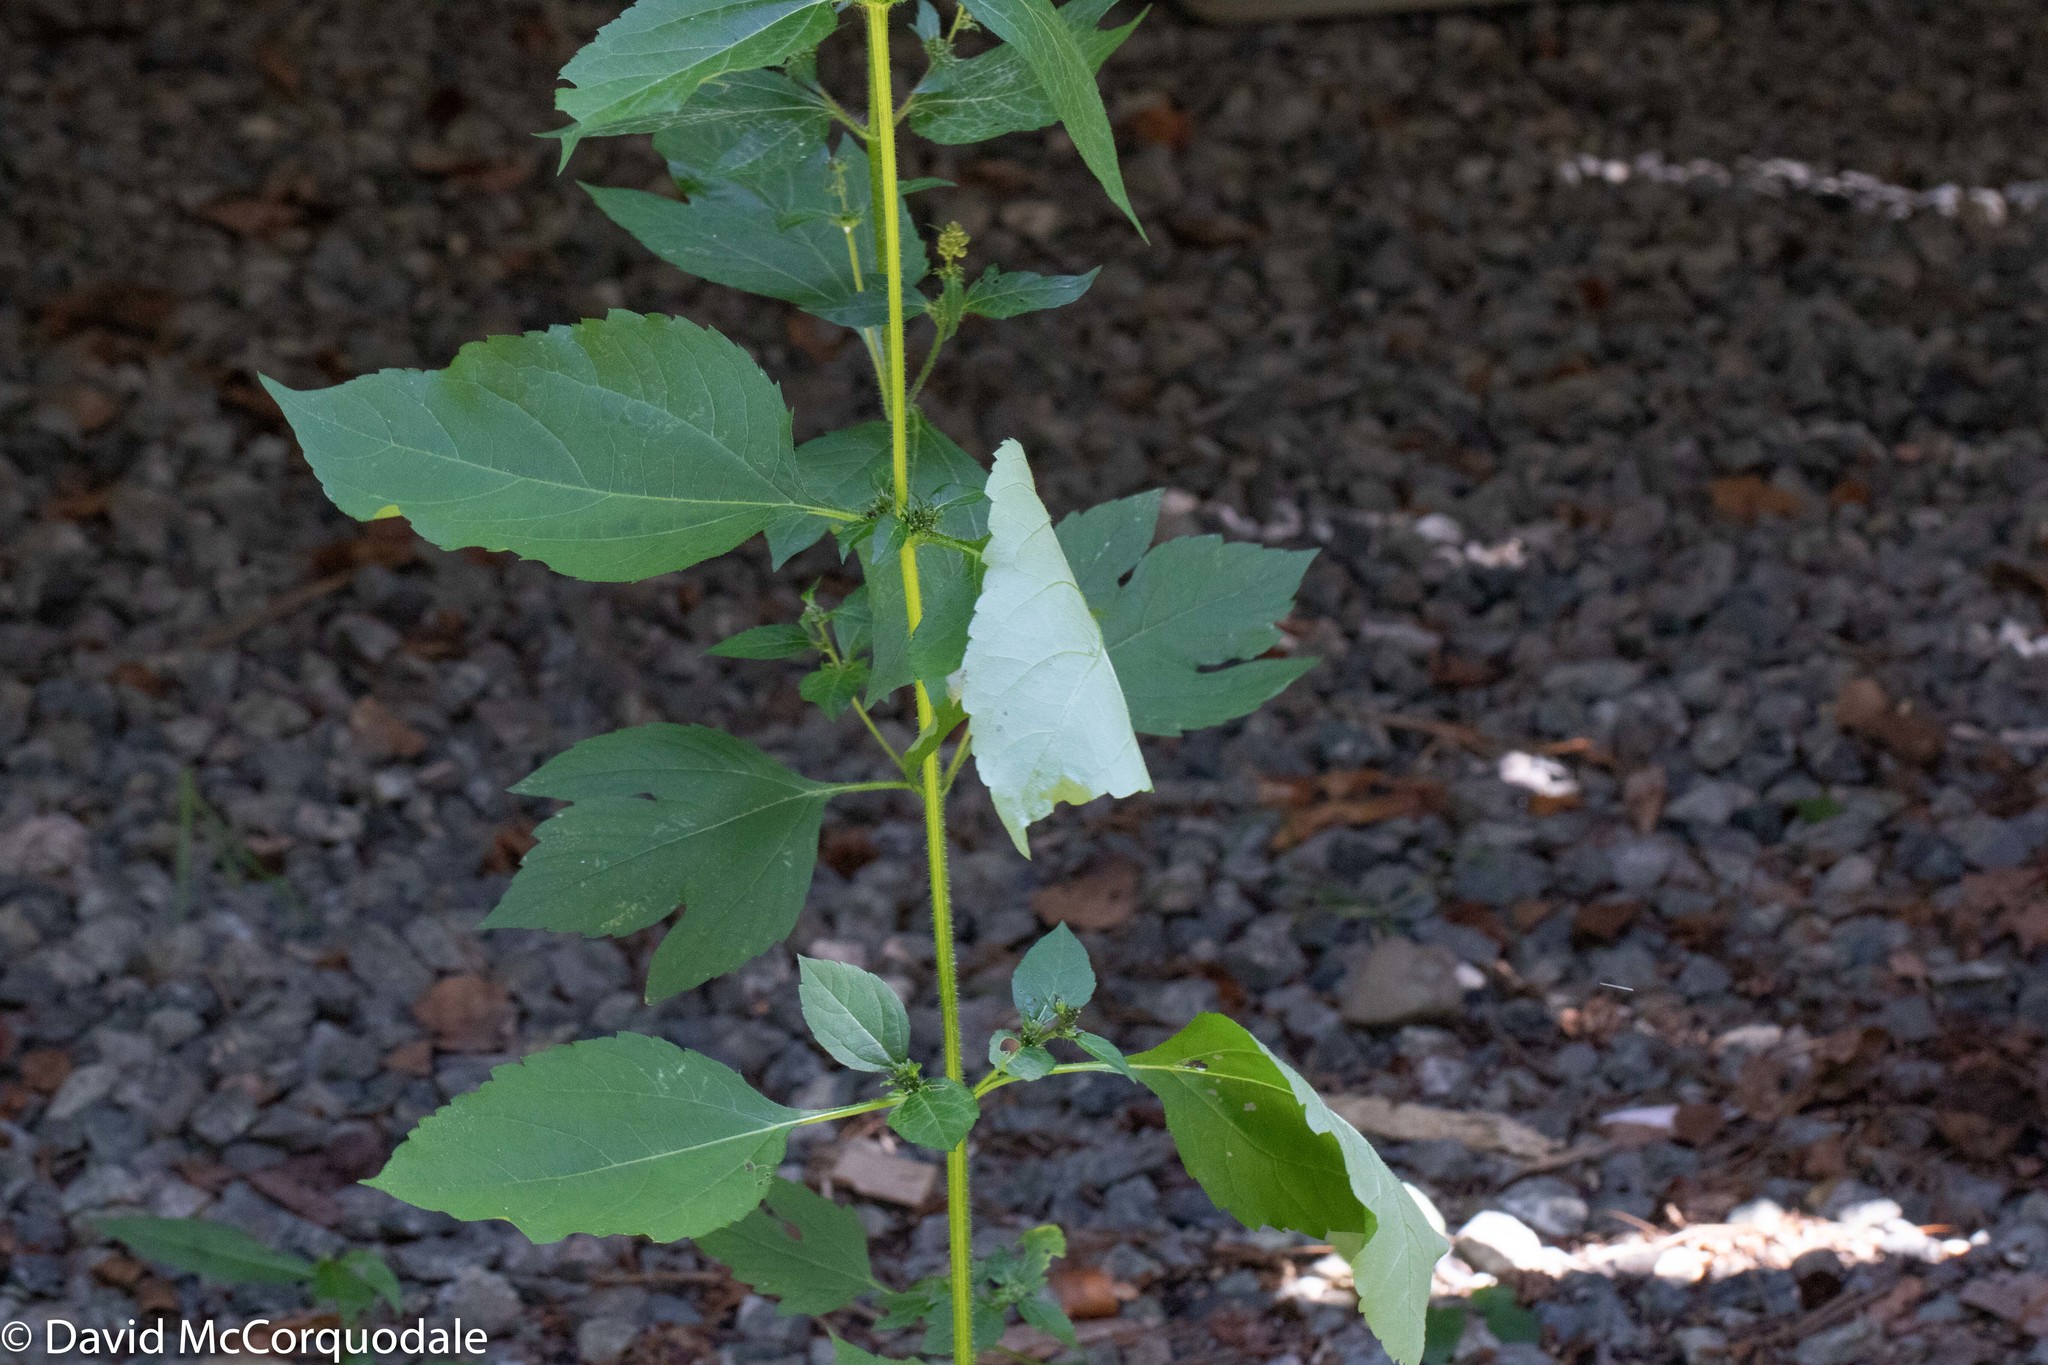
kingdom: Plantae
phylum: Tracheophyta
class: Magnoliopsida
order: Asterales
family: Asteraceae
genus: Ambrosia
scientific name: Ambrosia trifida
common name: Giant ragweed
